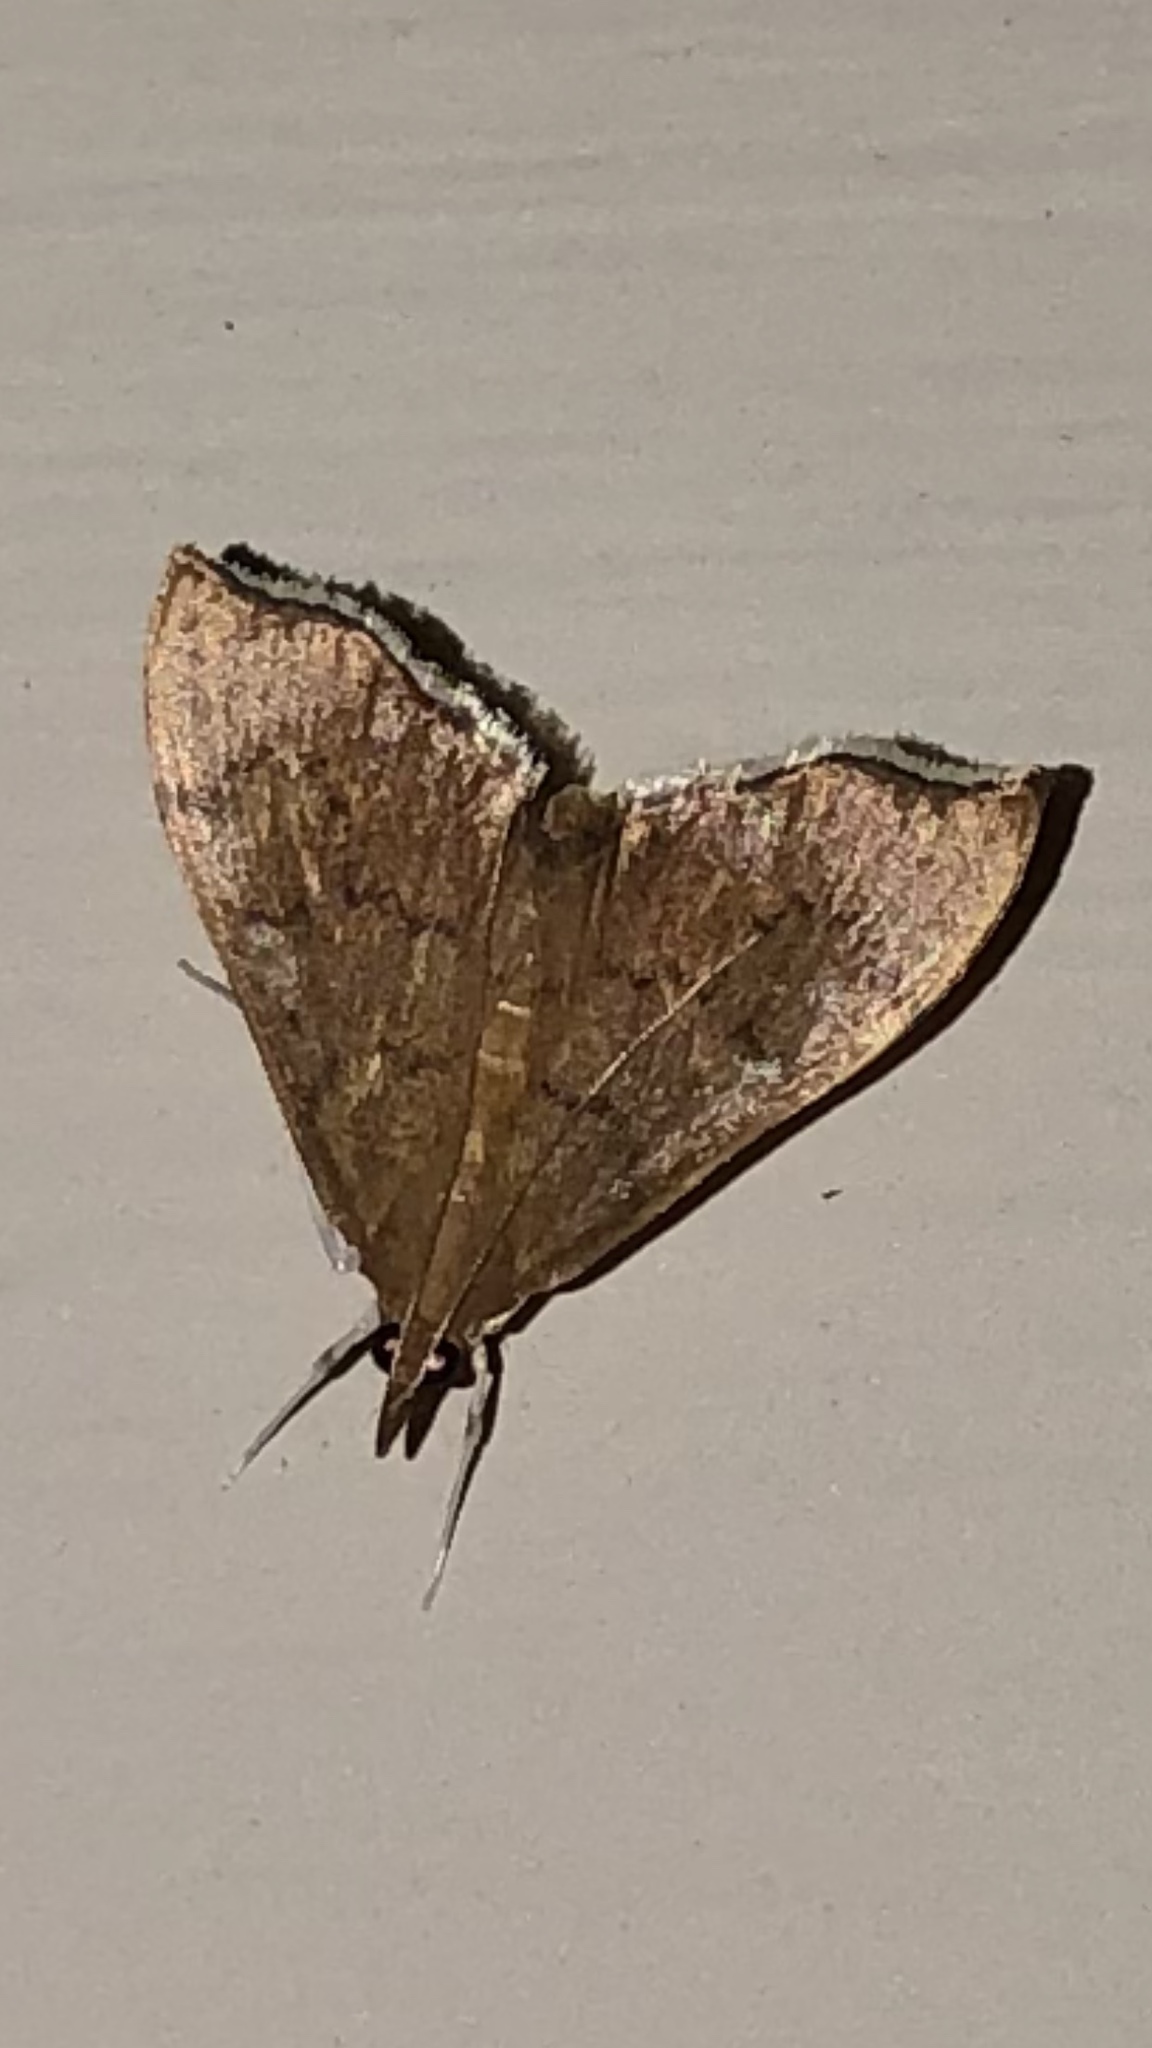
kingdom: Animalia
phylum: Arthropoda
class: Insecta
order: Lepidoptera
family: Crambidae
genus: Sericoplaga
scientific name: Sericoplaga externalis
